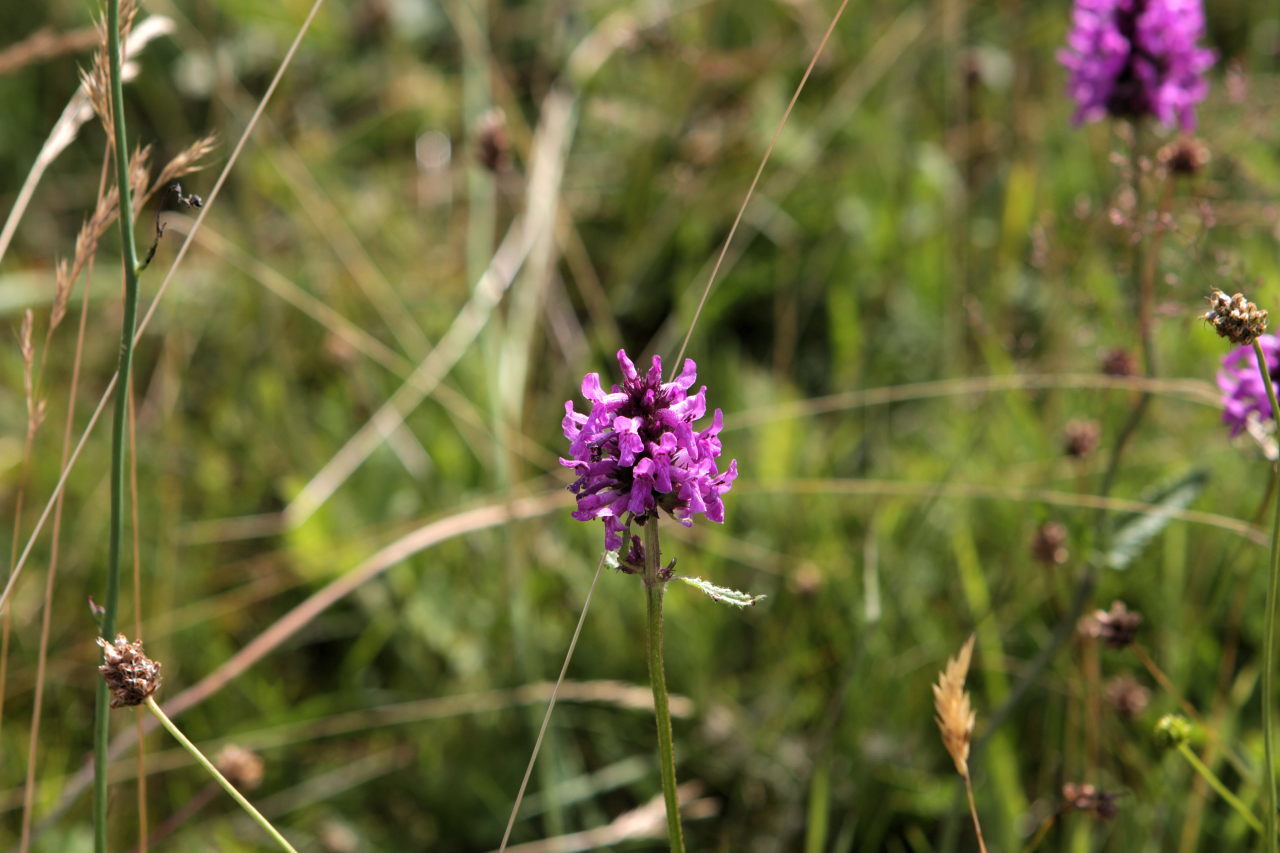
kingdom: Plantae
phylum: Tracheophyta
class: Magnoliopsida
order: Lamiales
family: Lamiaceae
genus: Betonica
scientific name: Betonica officinalis
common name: Bishop's-wort
